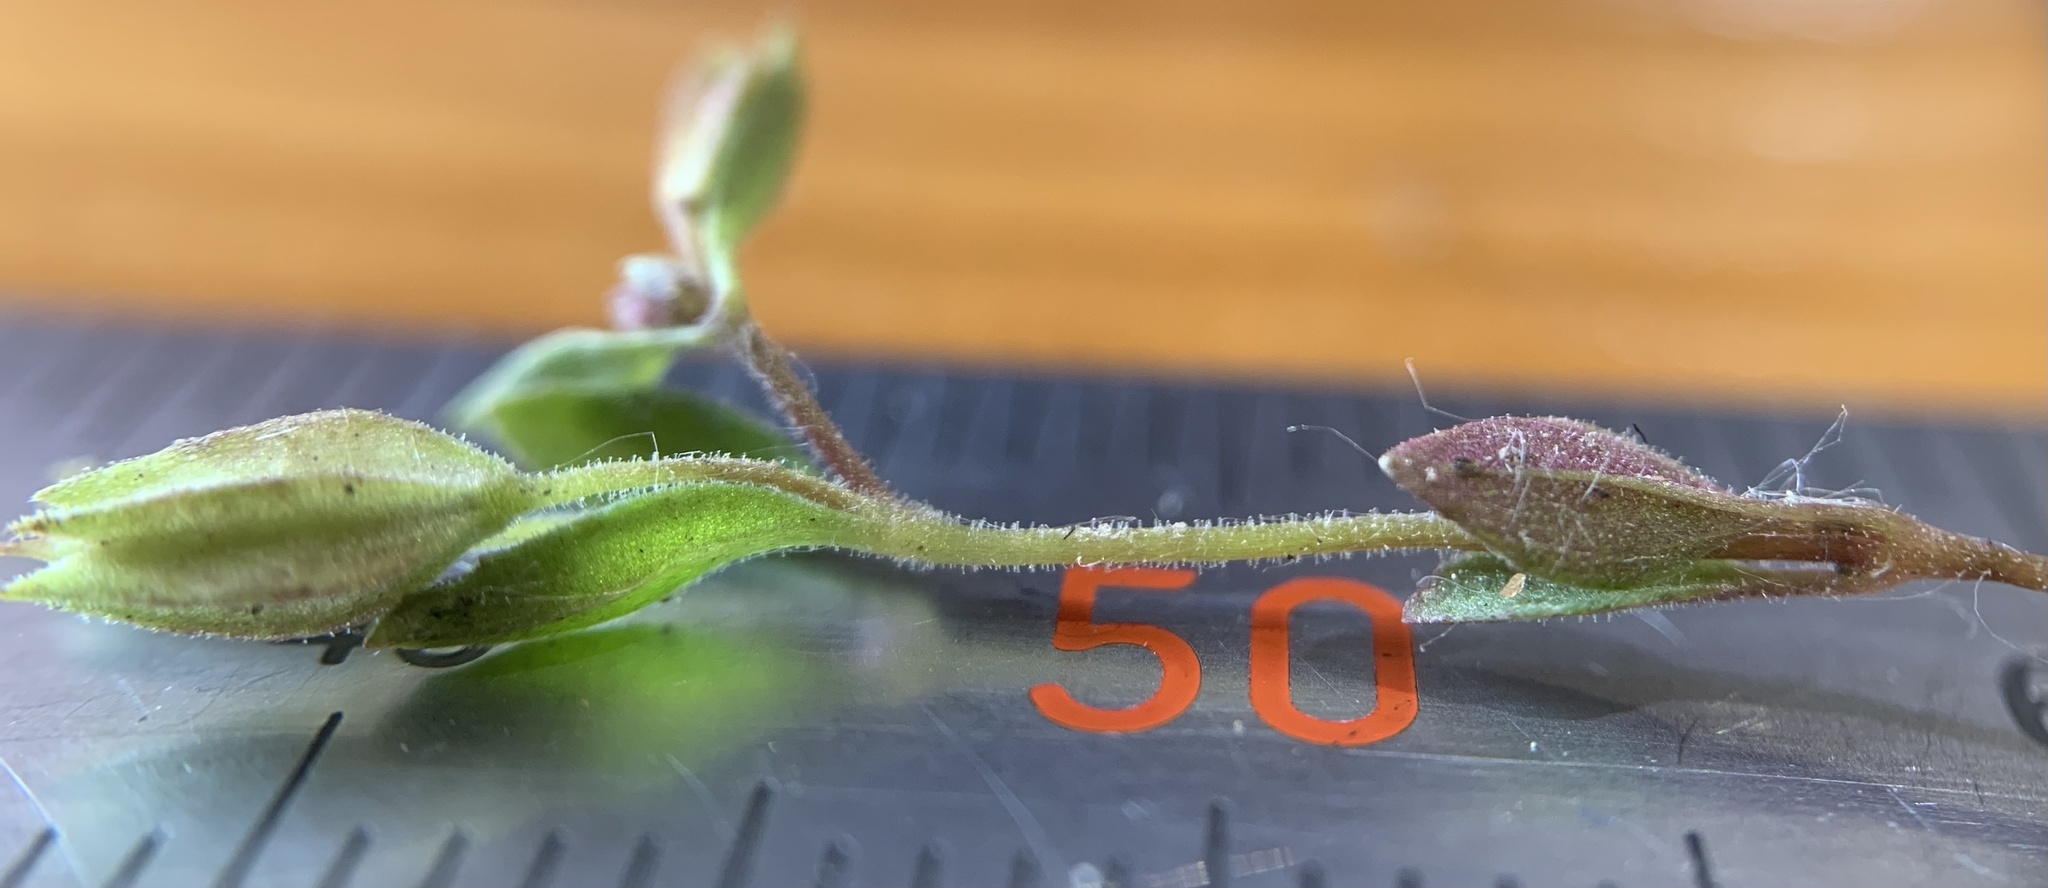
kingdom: Plantae
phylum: Tracheophyta
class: Magnoliopsida
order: Lamiales
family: Phrymaceae
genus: Erythranthe
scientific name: Erythranthe inflatula
